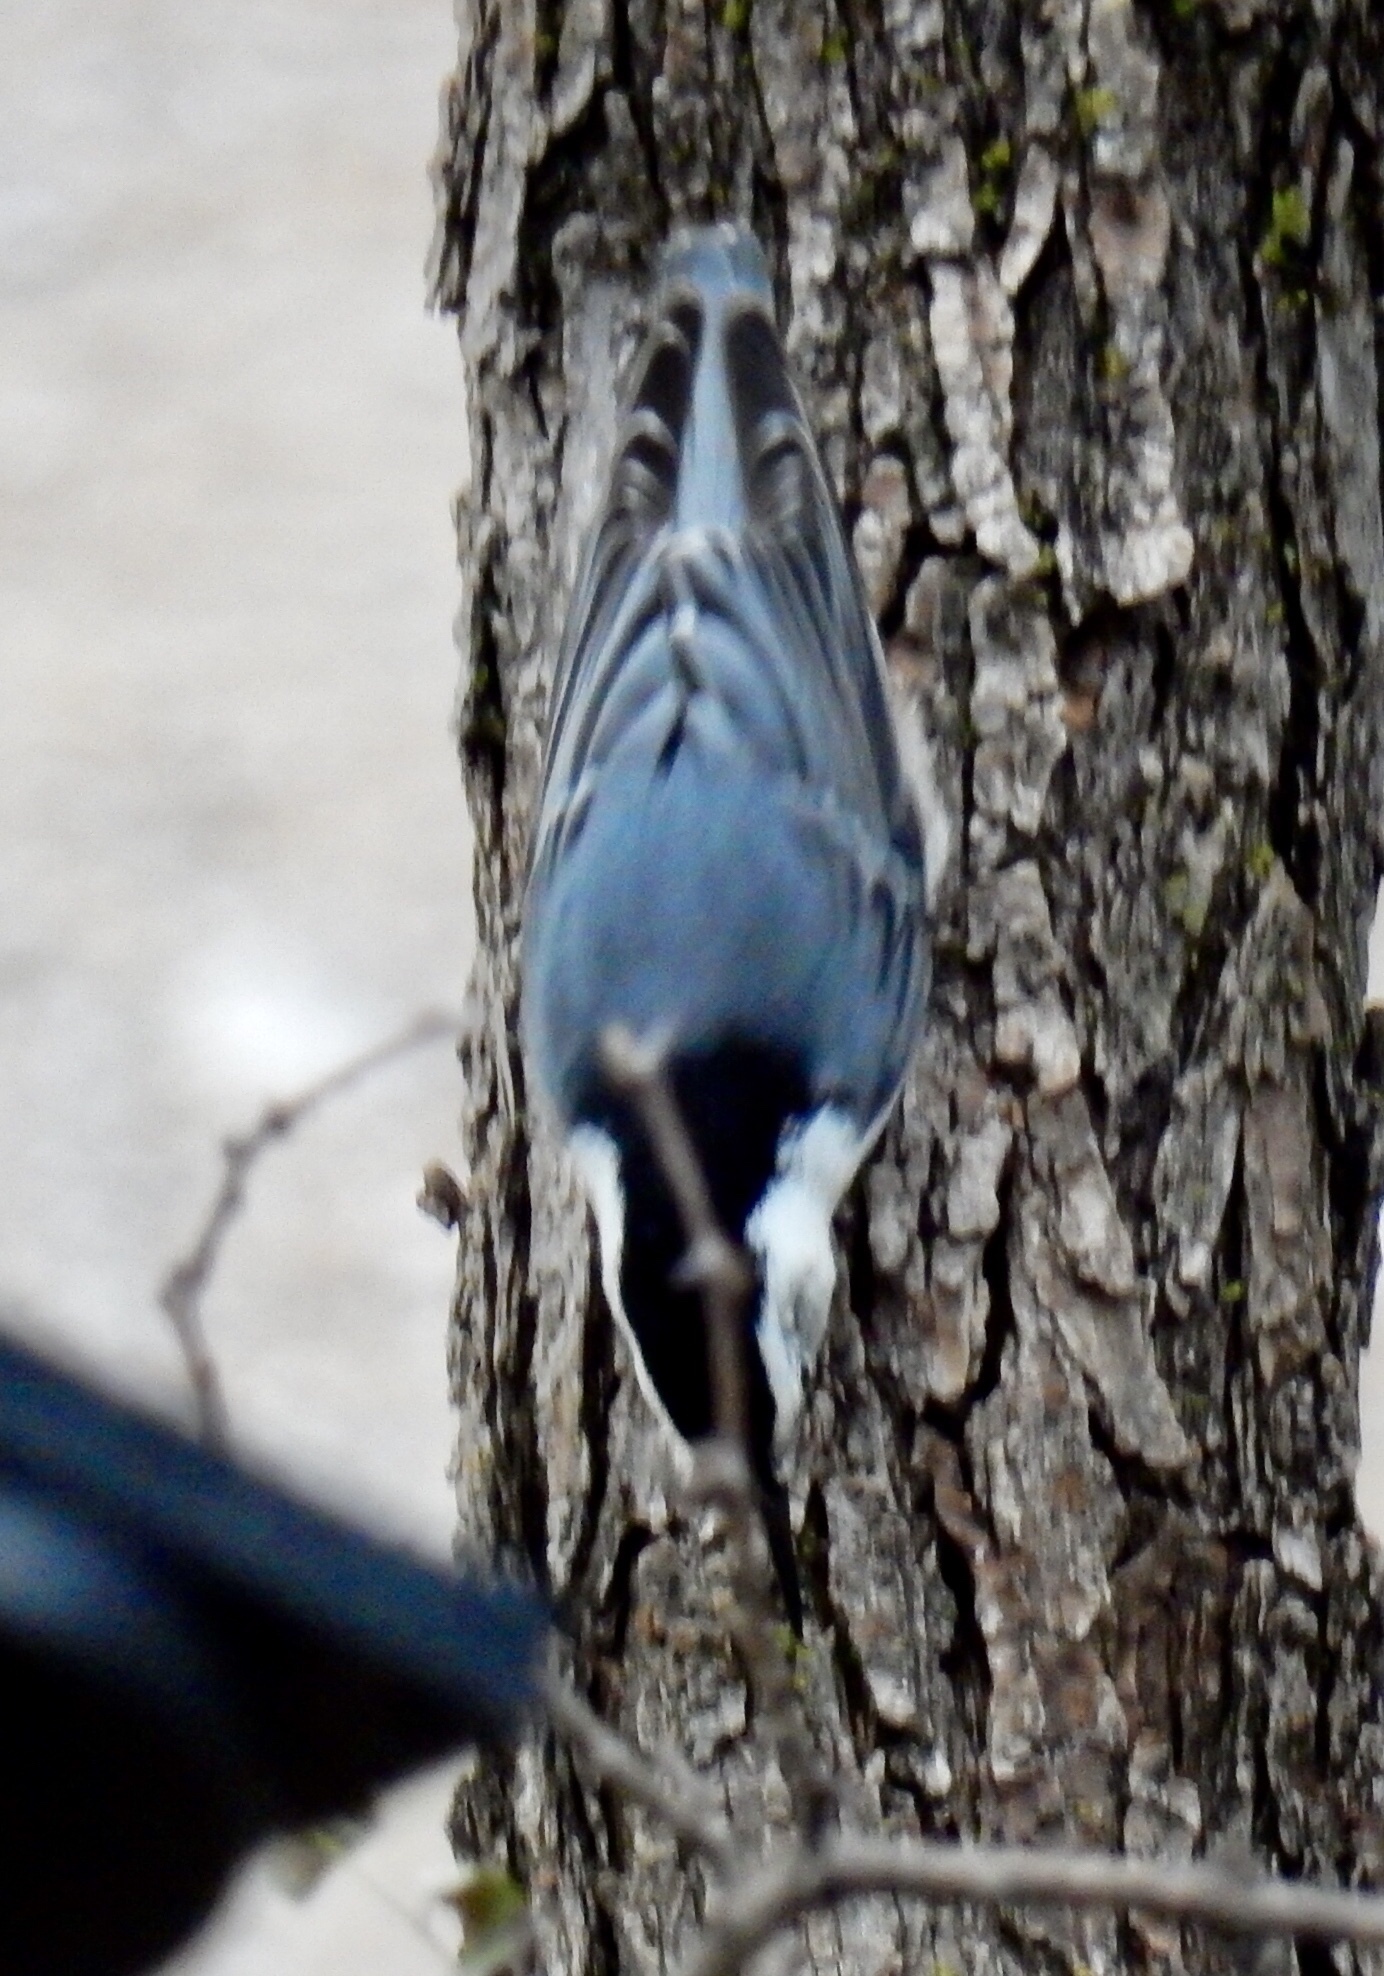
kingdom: Animalia
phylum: Chordata
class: Aves
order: Passeriformes
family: Sittidae
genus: Sitta
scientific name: Sitta carolinensis
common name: White-breasted nuthatch
